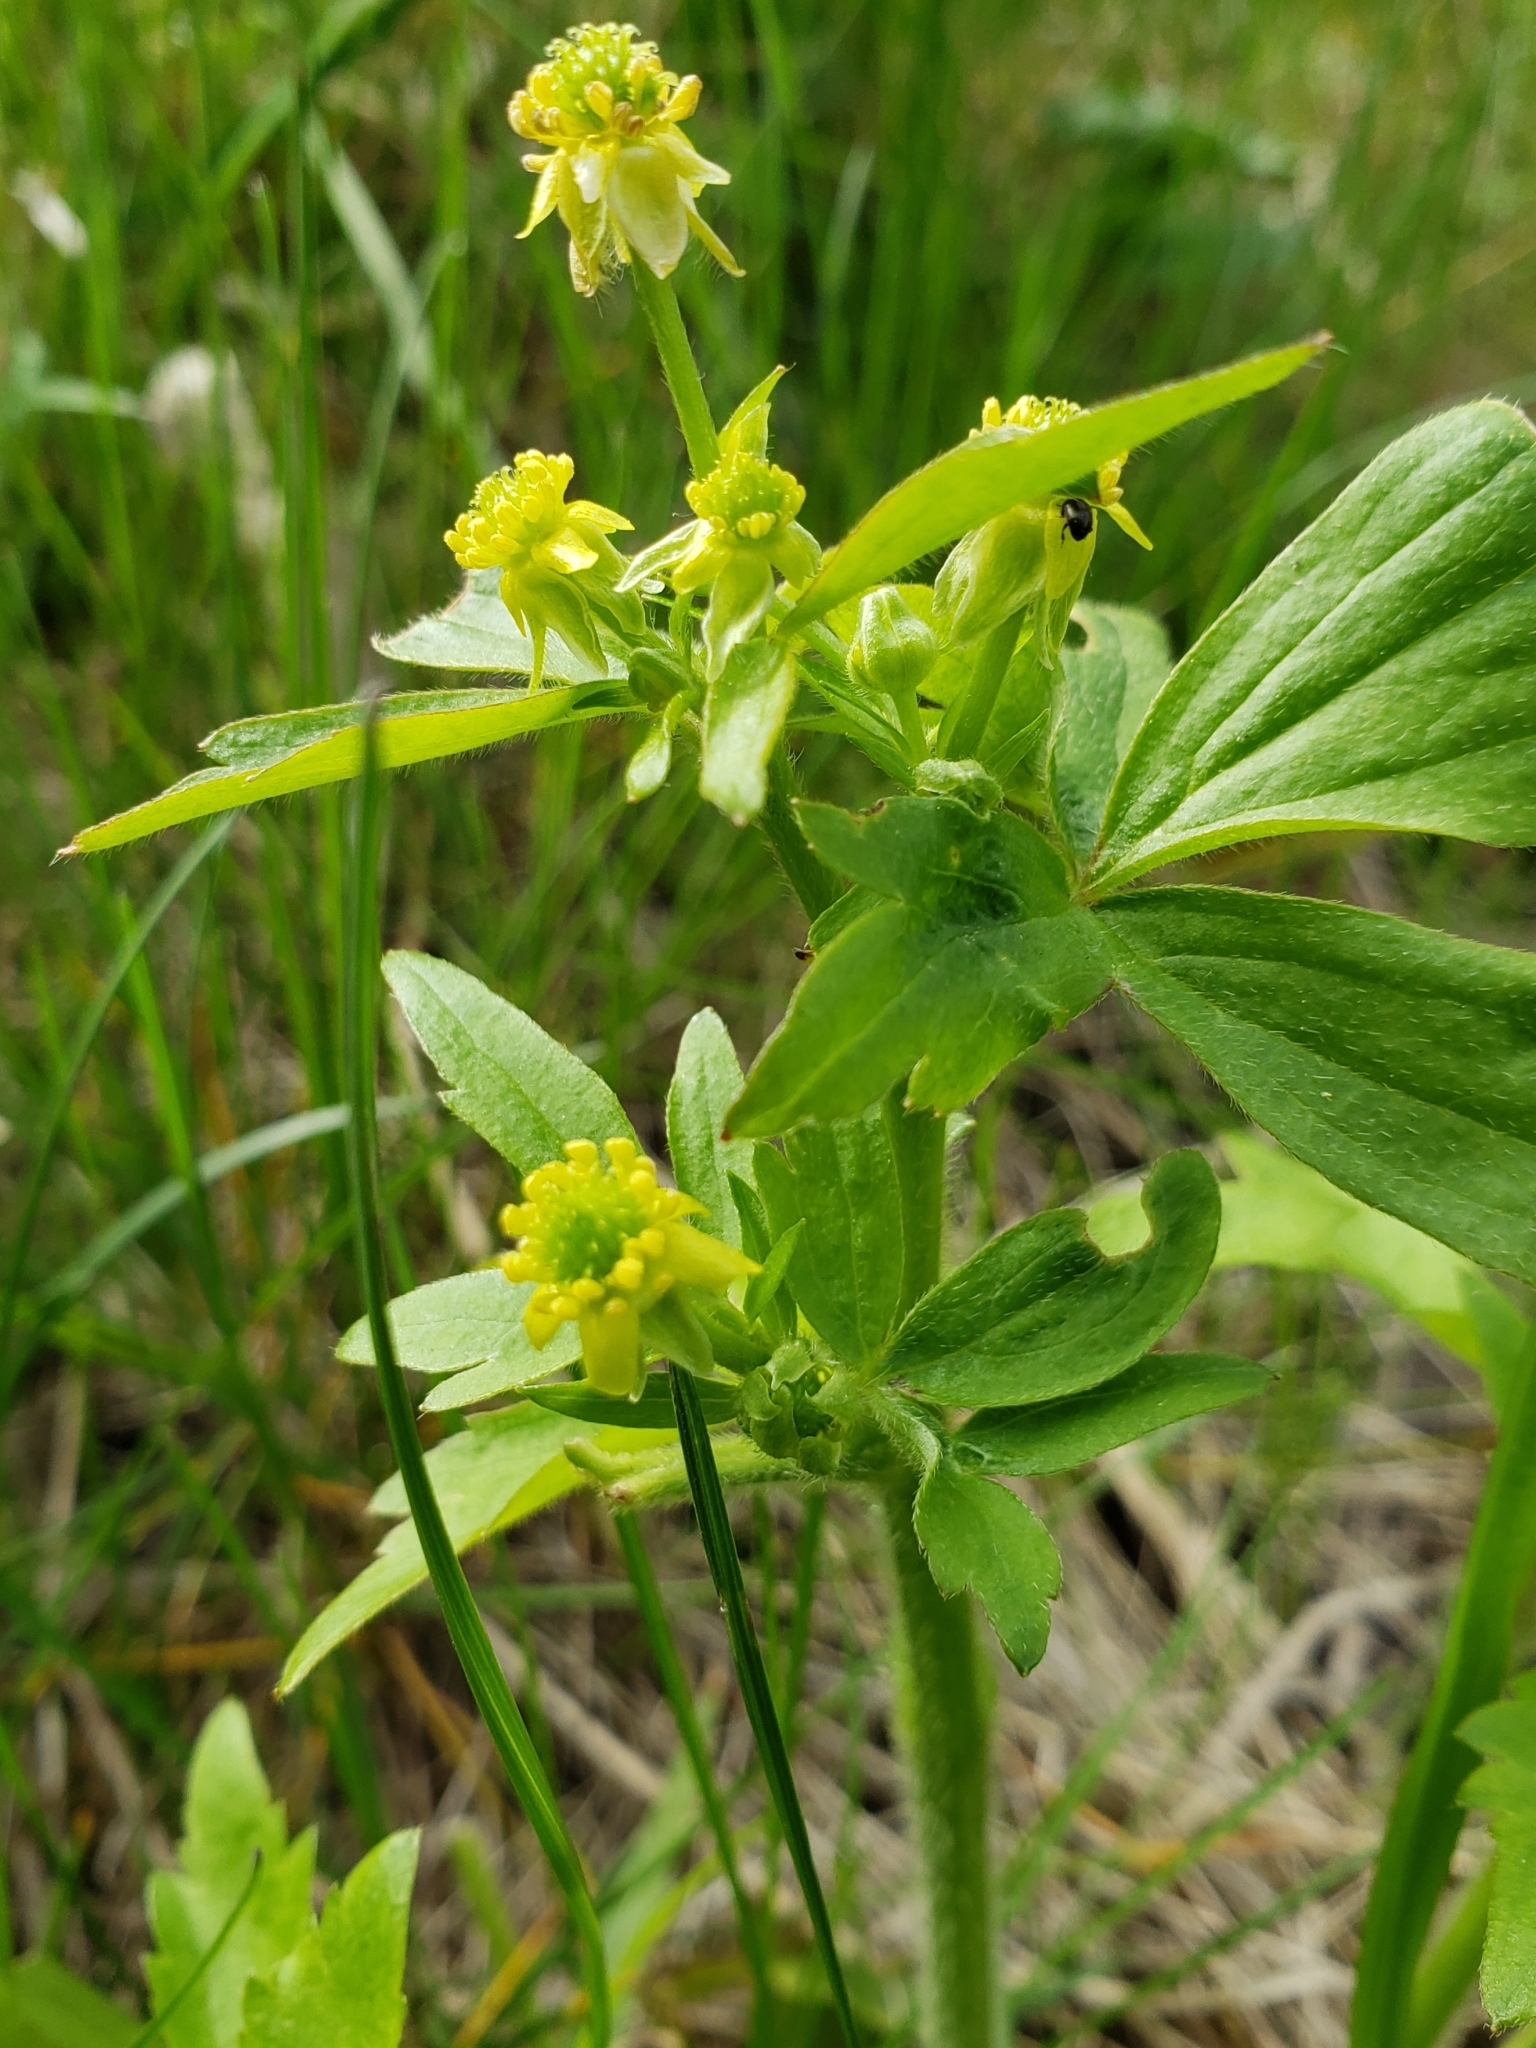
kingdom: Plantae
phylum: Tracheophyta
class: Magnoliopsida
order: Ranunculales
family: Ranunculaceae
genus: Ranunculus
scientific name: Ranunculus recurvatus
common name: Blisterwort
